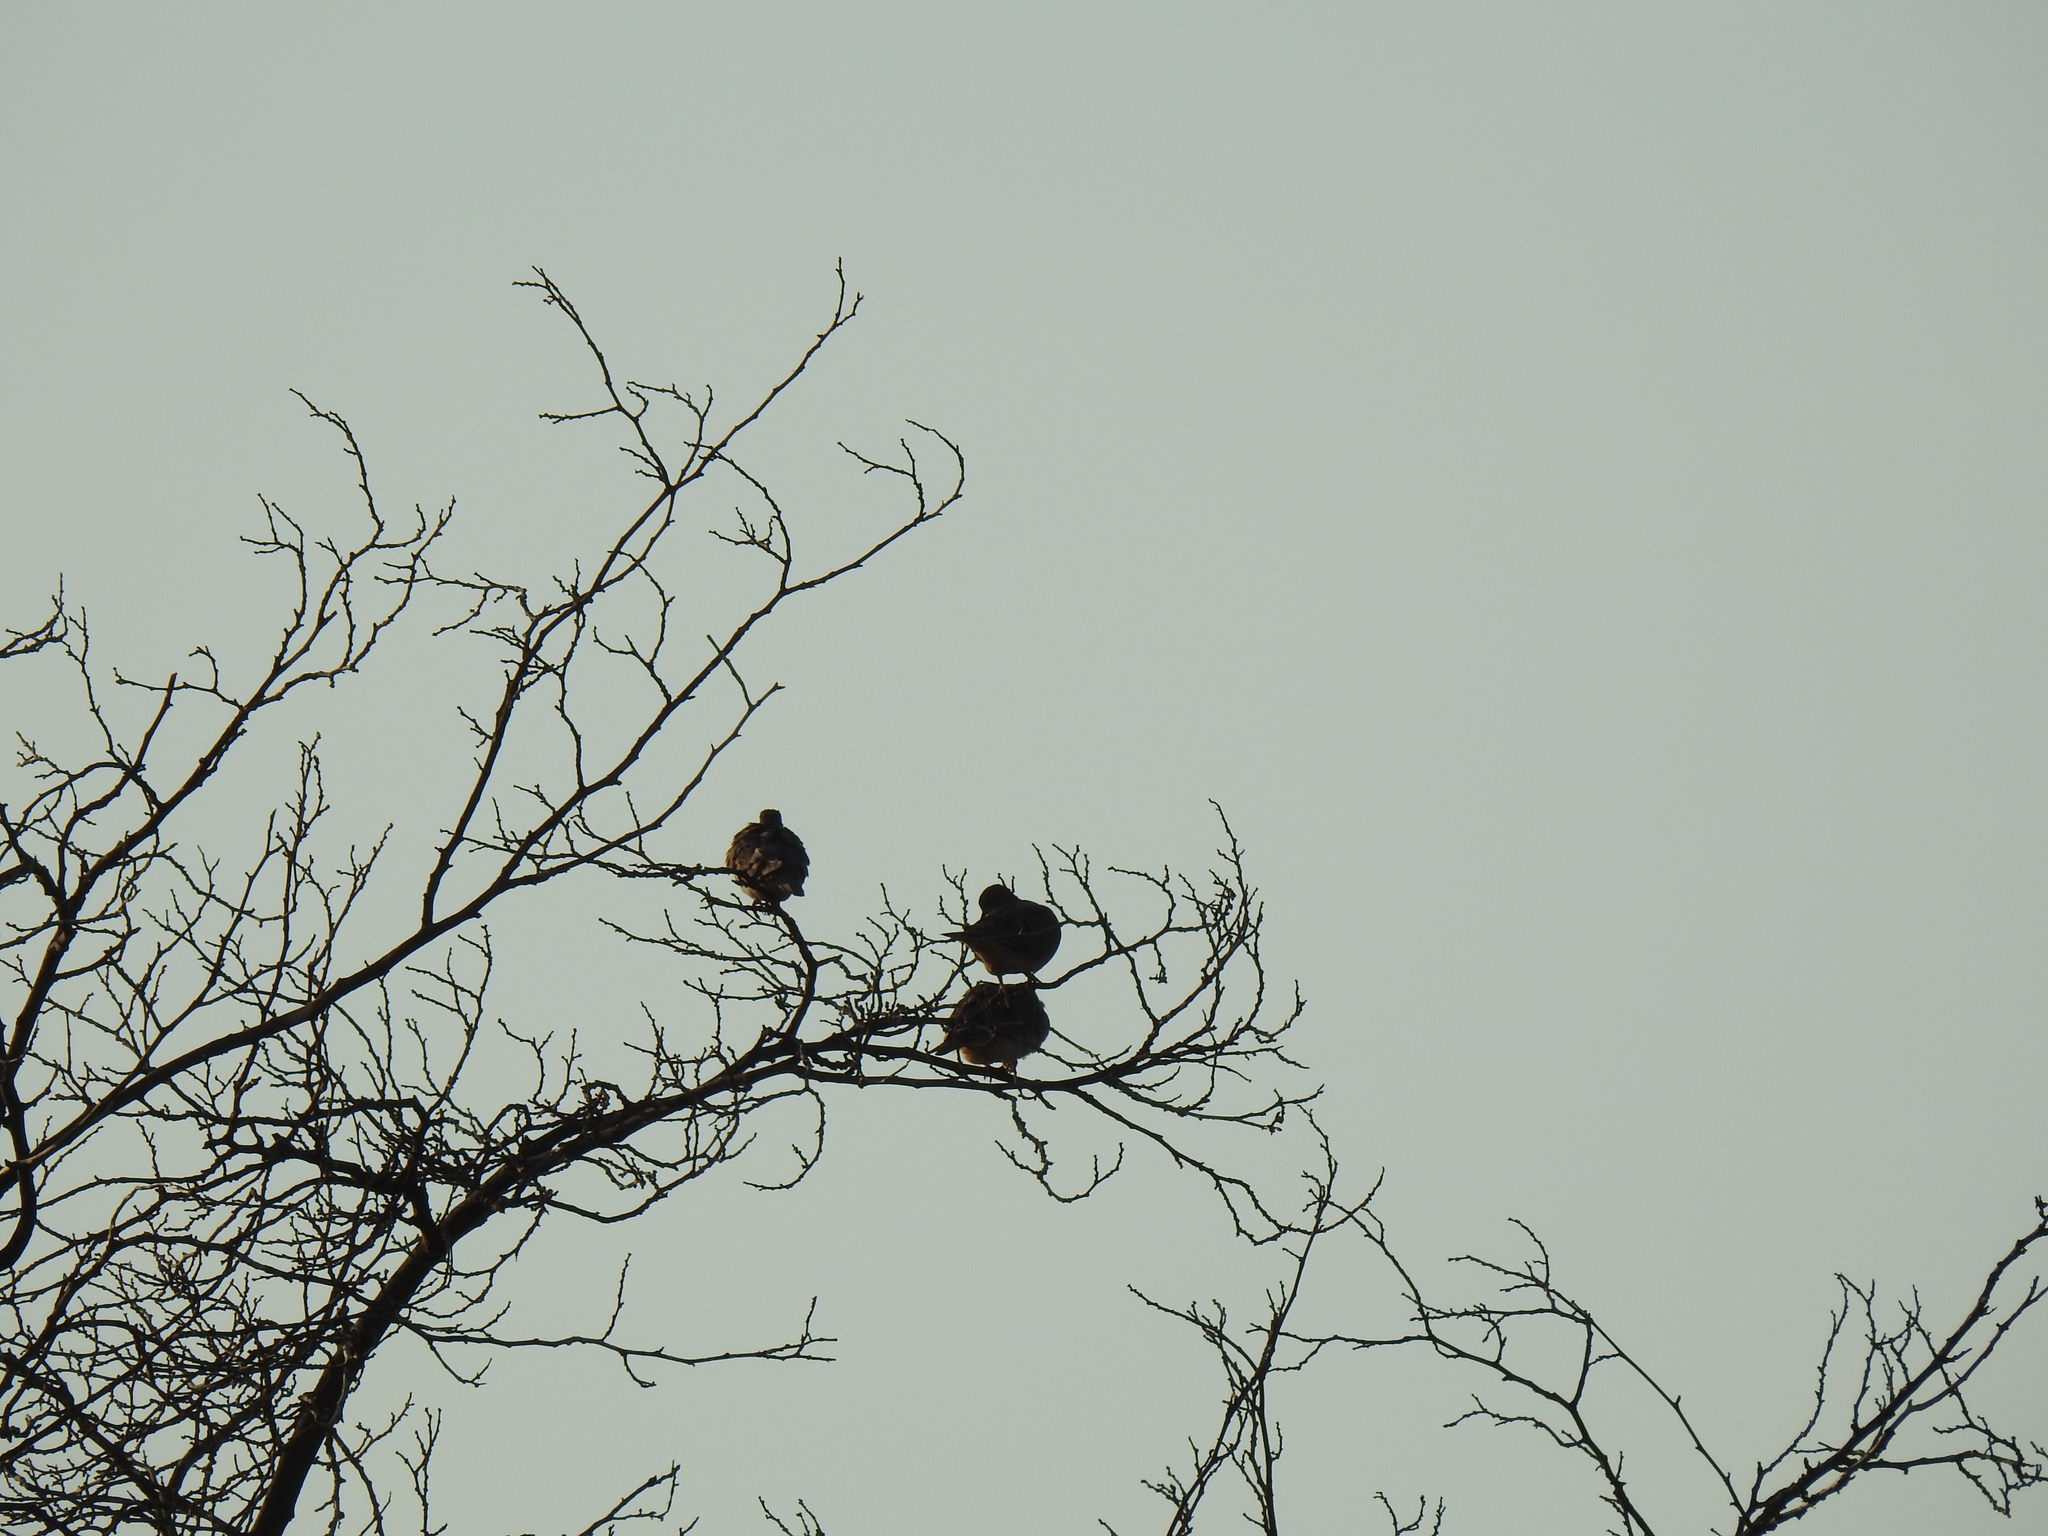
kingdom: Animalia
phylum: Chordata
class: Aves
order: Columbiformes
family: Columbidae
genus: Zenaida
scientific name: Zenaida macroura
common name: Mourning dove
